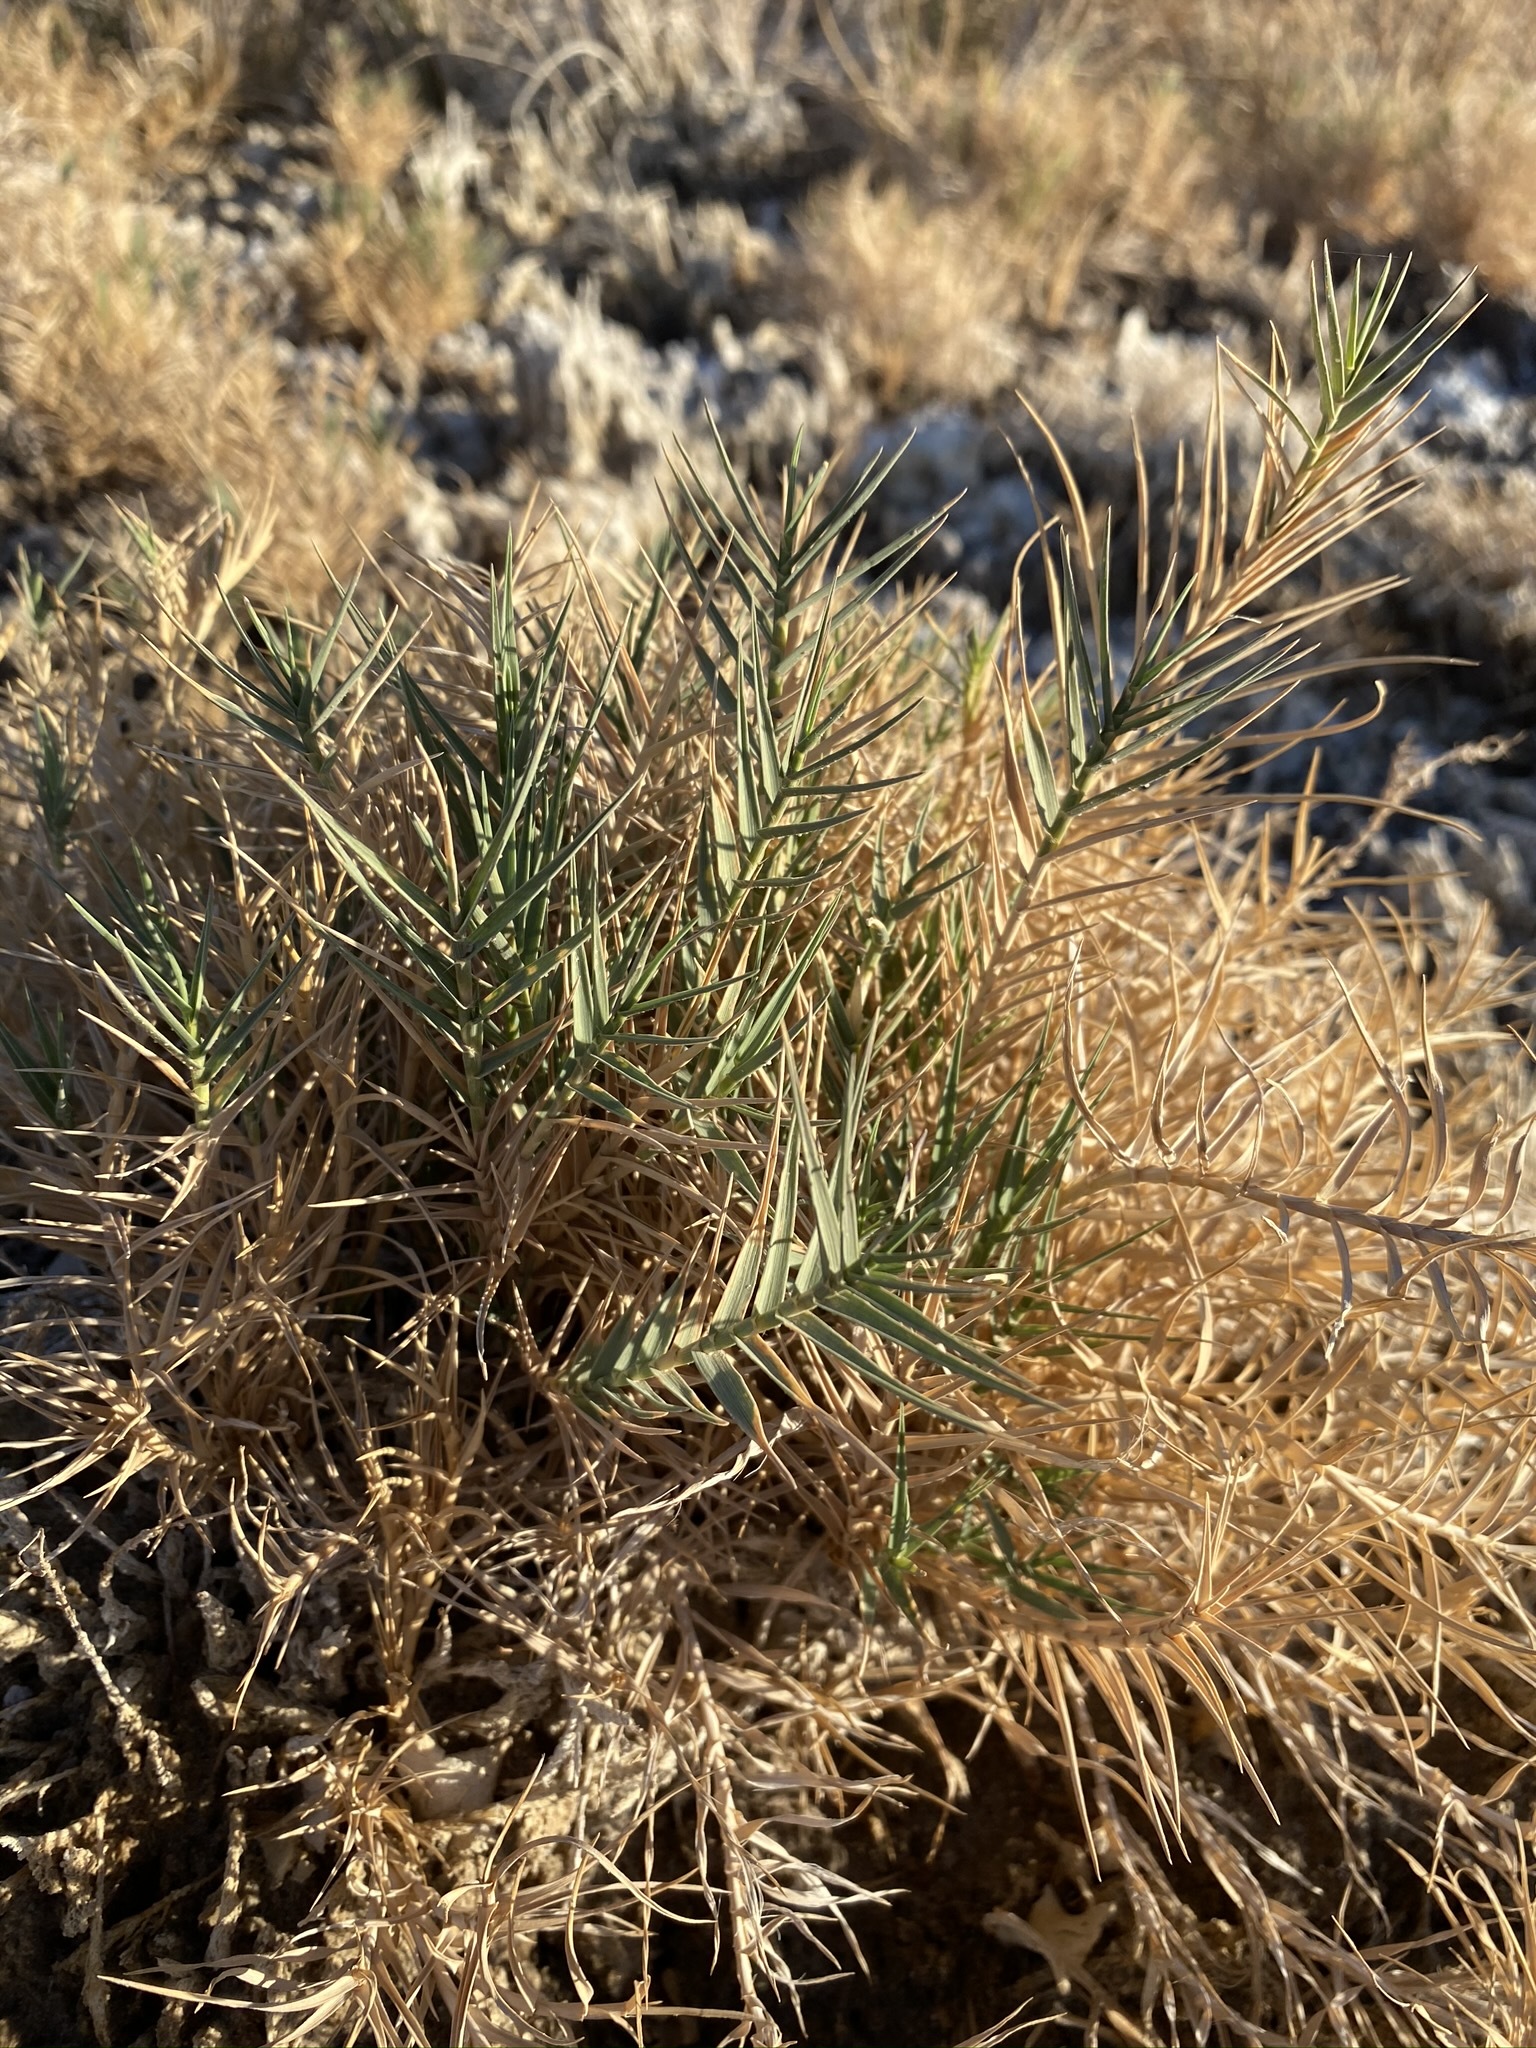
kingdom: Plantae
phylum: Tracheophyta
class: Liliopsida
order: Poales
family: Poaceae
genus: Distichlis
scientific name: Distichlis spicata
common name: Saltgrass
